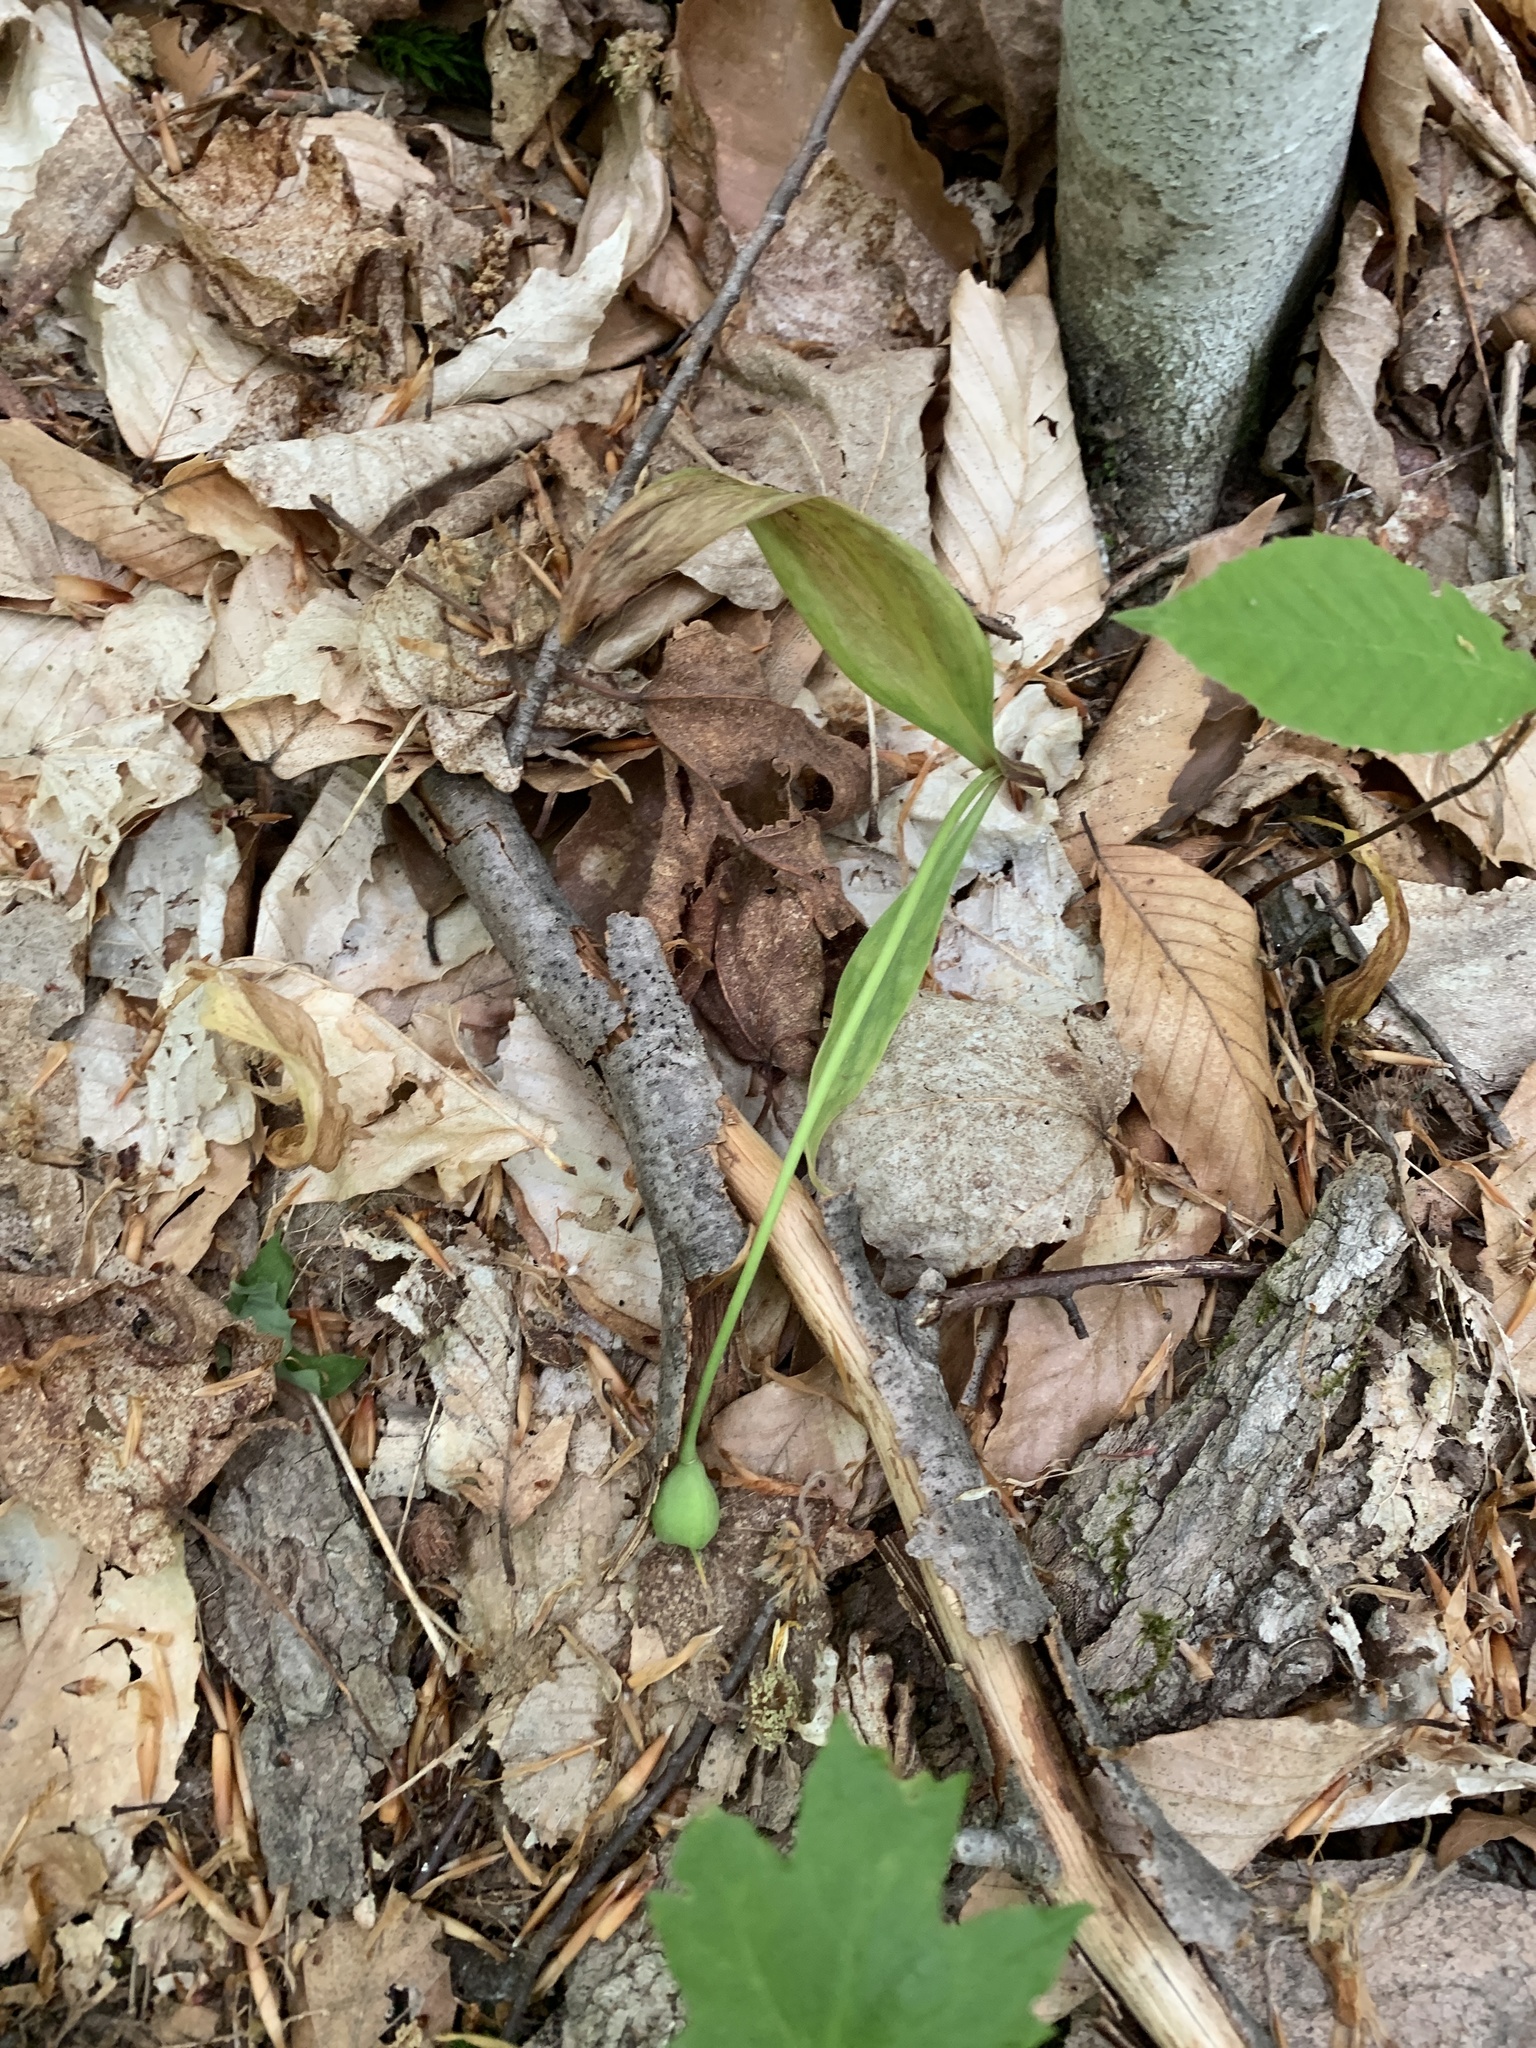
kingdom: Plantae
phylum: Tracheophyta
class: Liliopsida
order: Liliales
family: Liliaceae
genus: Erythronium
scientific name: Erythronium americanum
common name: Yellow adder's-tongue
